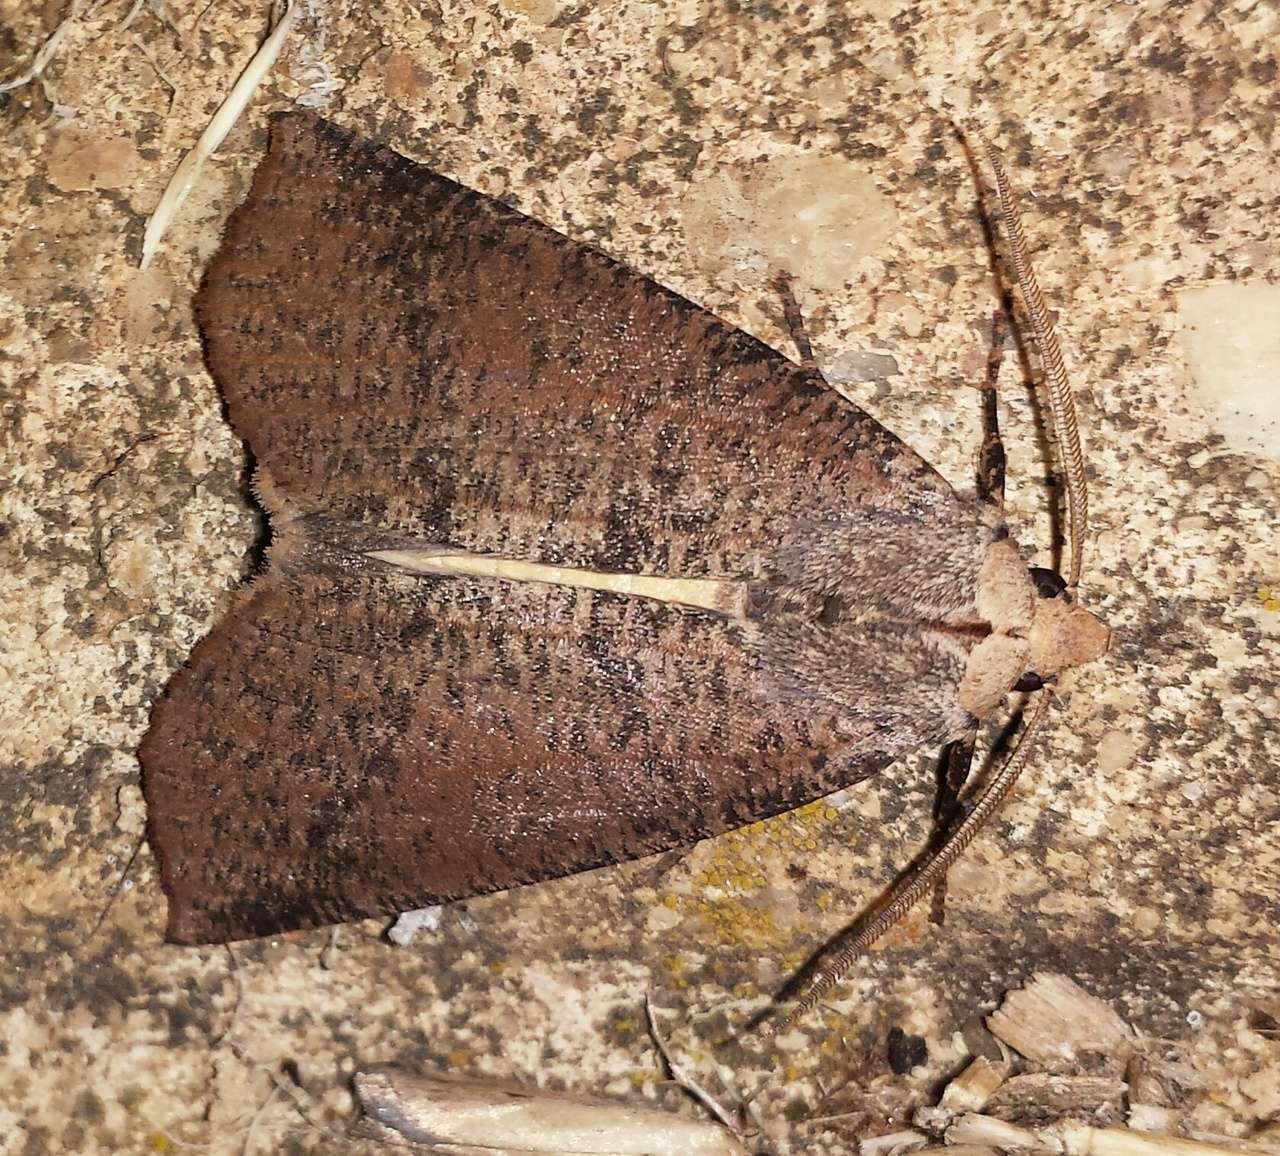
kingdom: Animalia
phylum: Arthropoda
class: Insecta
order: Lepidoptera
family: Geometridae
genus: Fisera
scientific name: Fisera eribola
